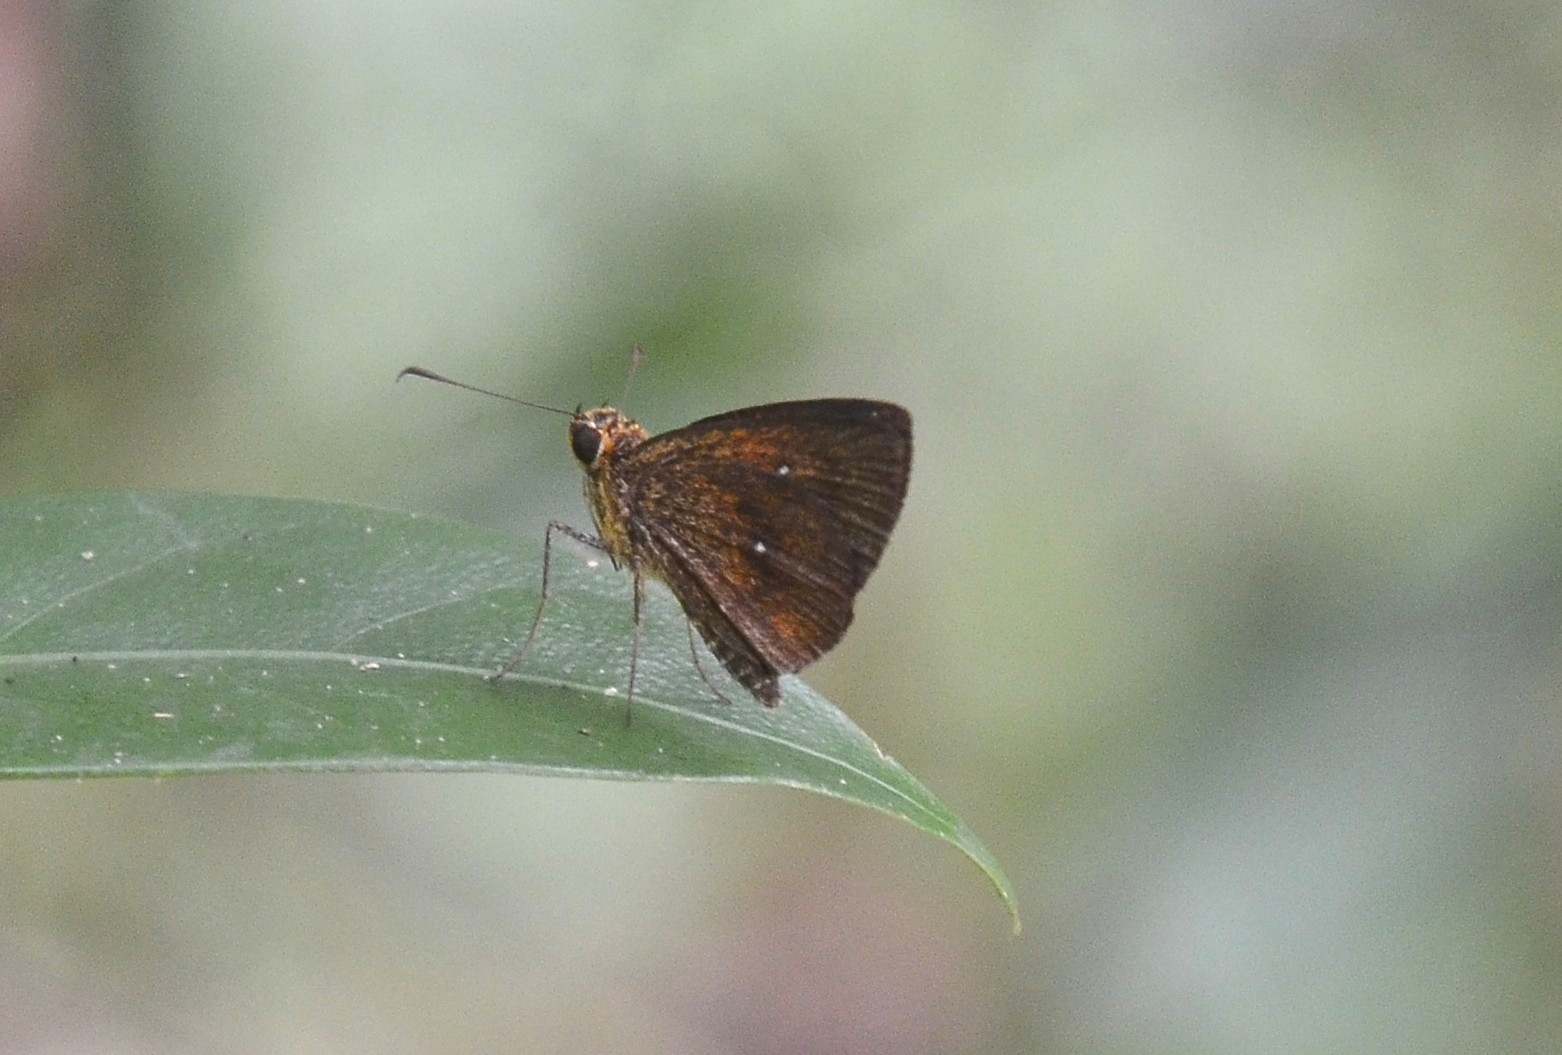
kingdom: Animalia
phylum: Arthropoda
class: Insecta
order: Lepidoptera
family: Hesperiidae
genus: Iambrix
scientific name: Iambrix salsala
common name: Chestnut bob
